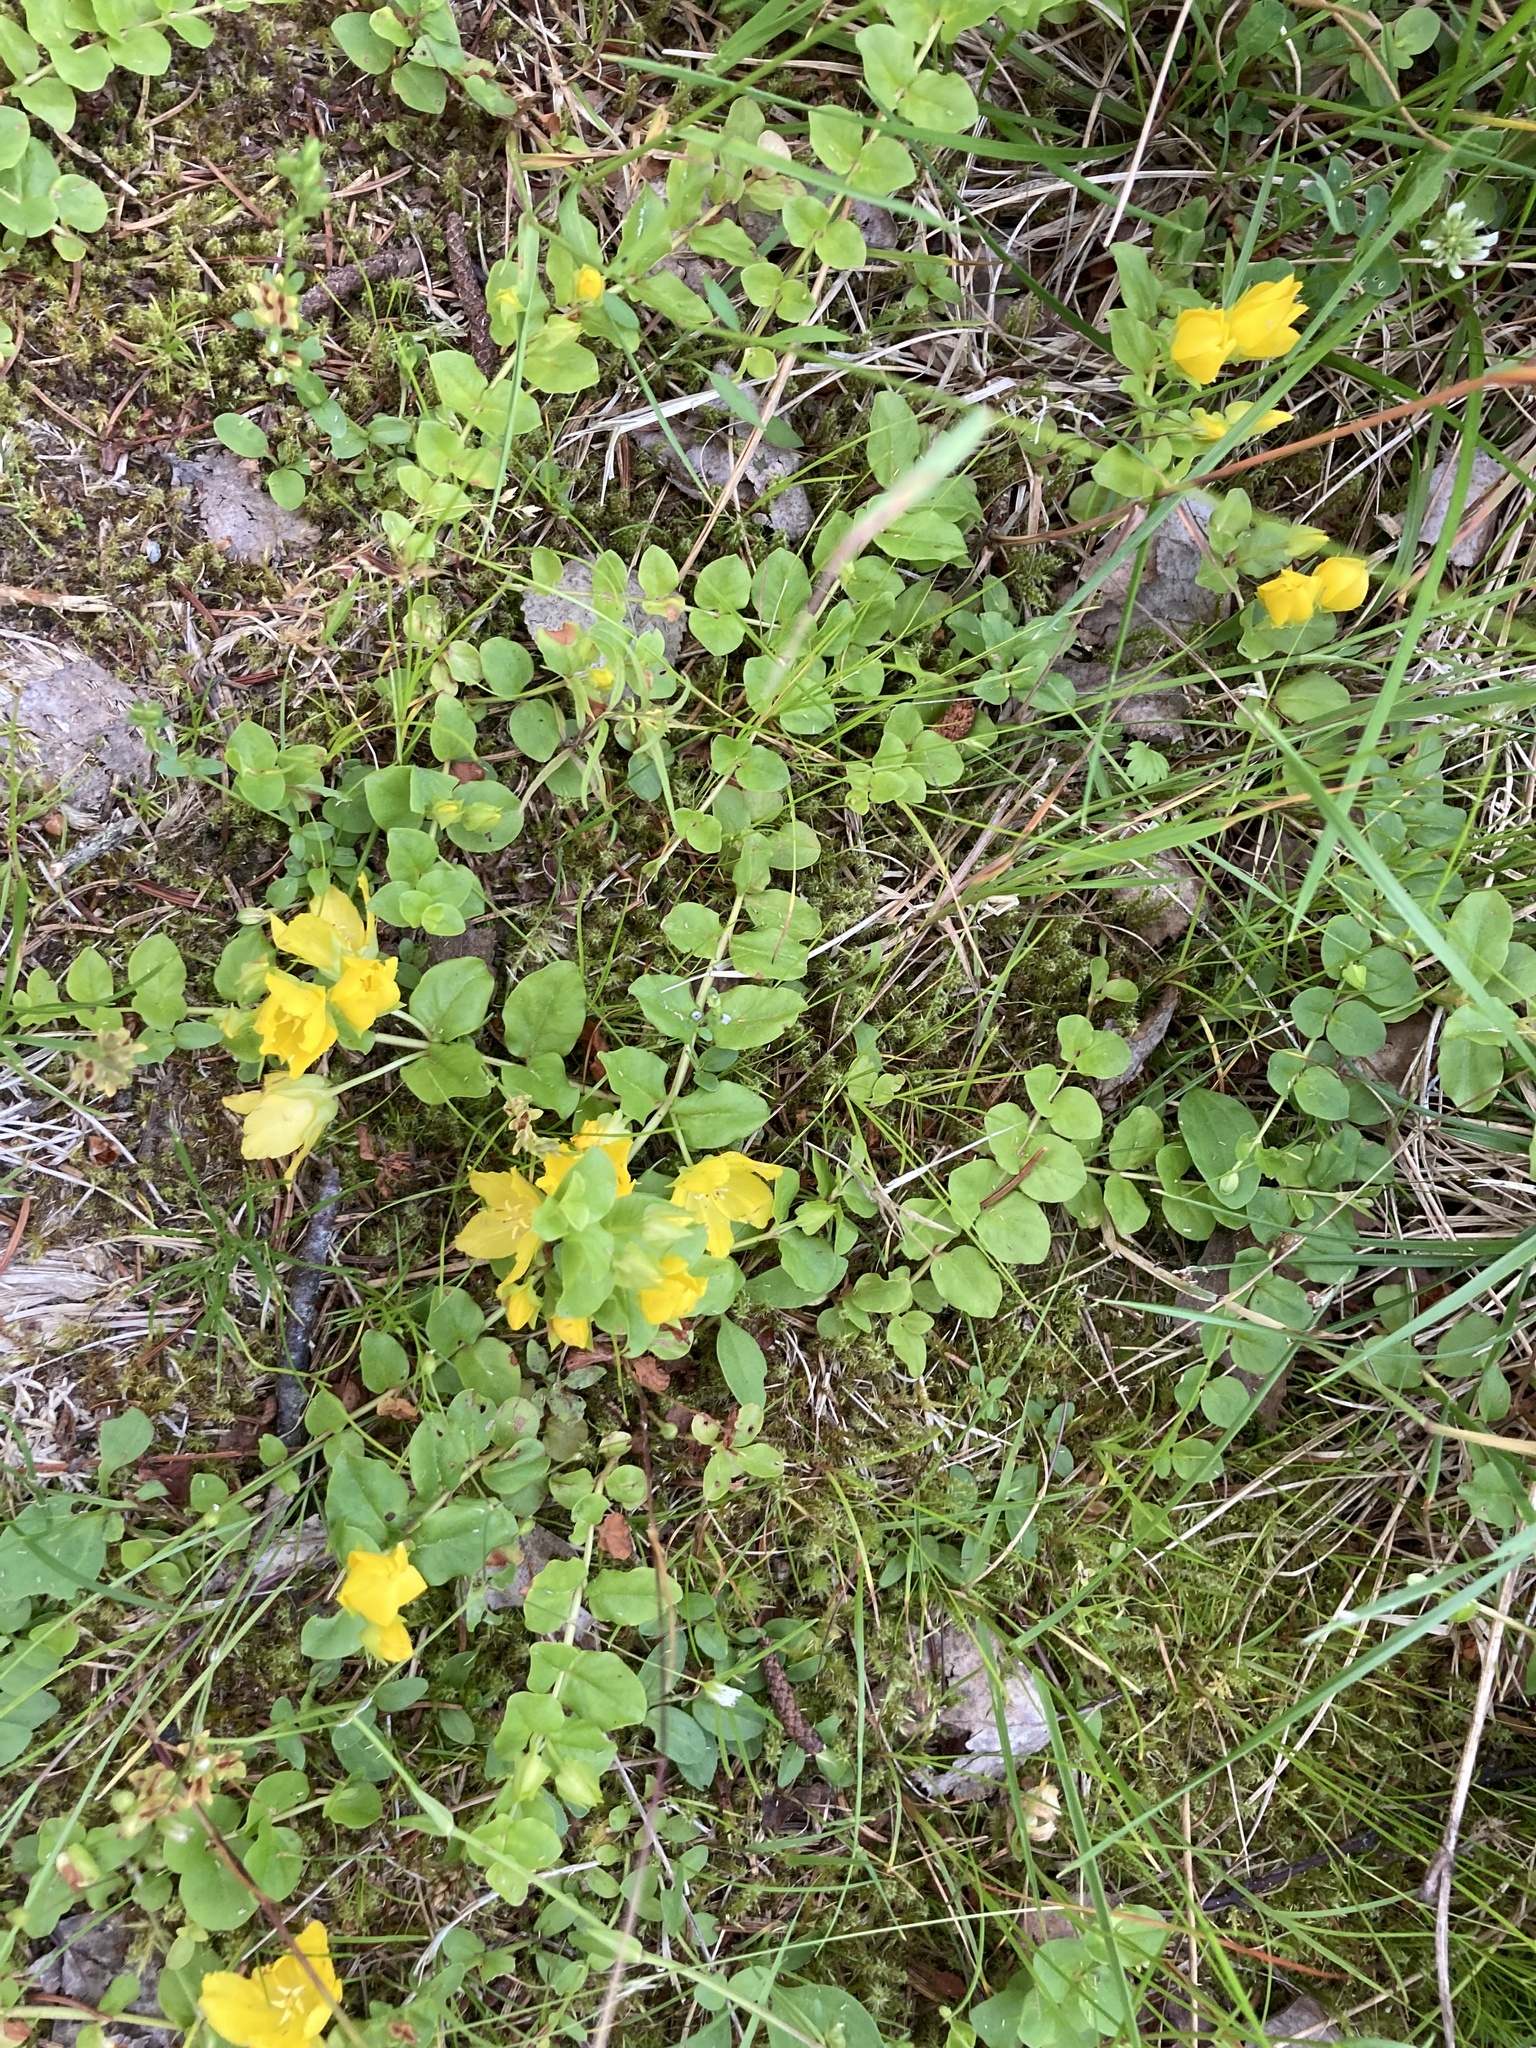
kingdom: Plantae
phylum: Tracheophyta
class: Magnoliopsida
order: Ericales
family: Primulaceae
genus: Lysimachia
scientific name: Lysimachia nummularia
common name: Moneywort
